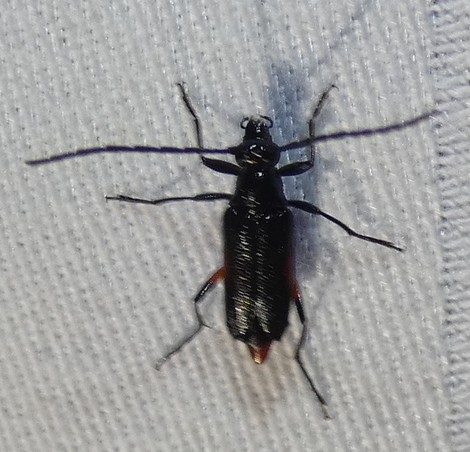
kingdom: Animalia
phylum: Arthropoda
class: Insecta
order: Coleoptera
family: Cerambycidae
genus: Pseudostrangalia
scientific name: Pseudostrangalia cruentata
